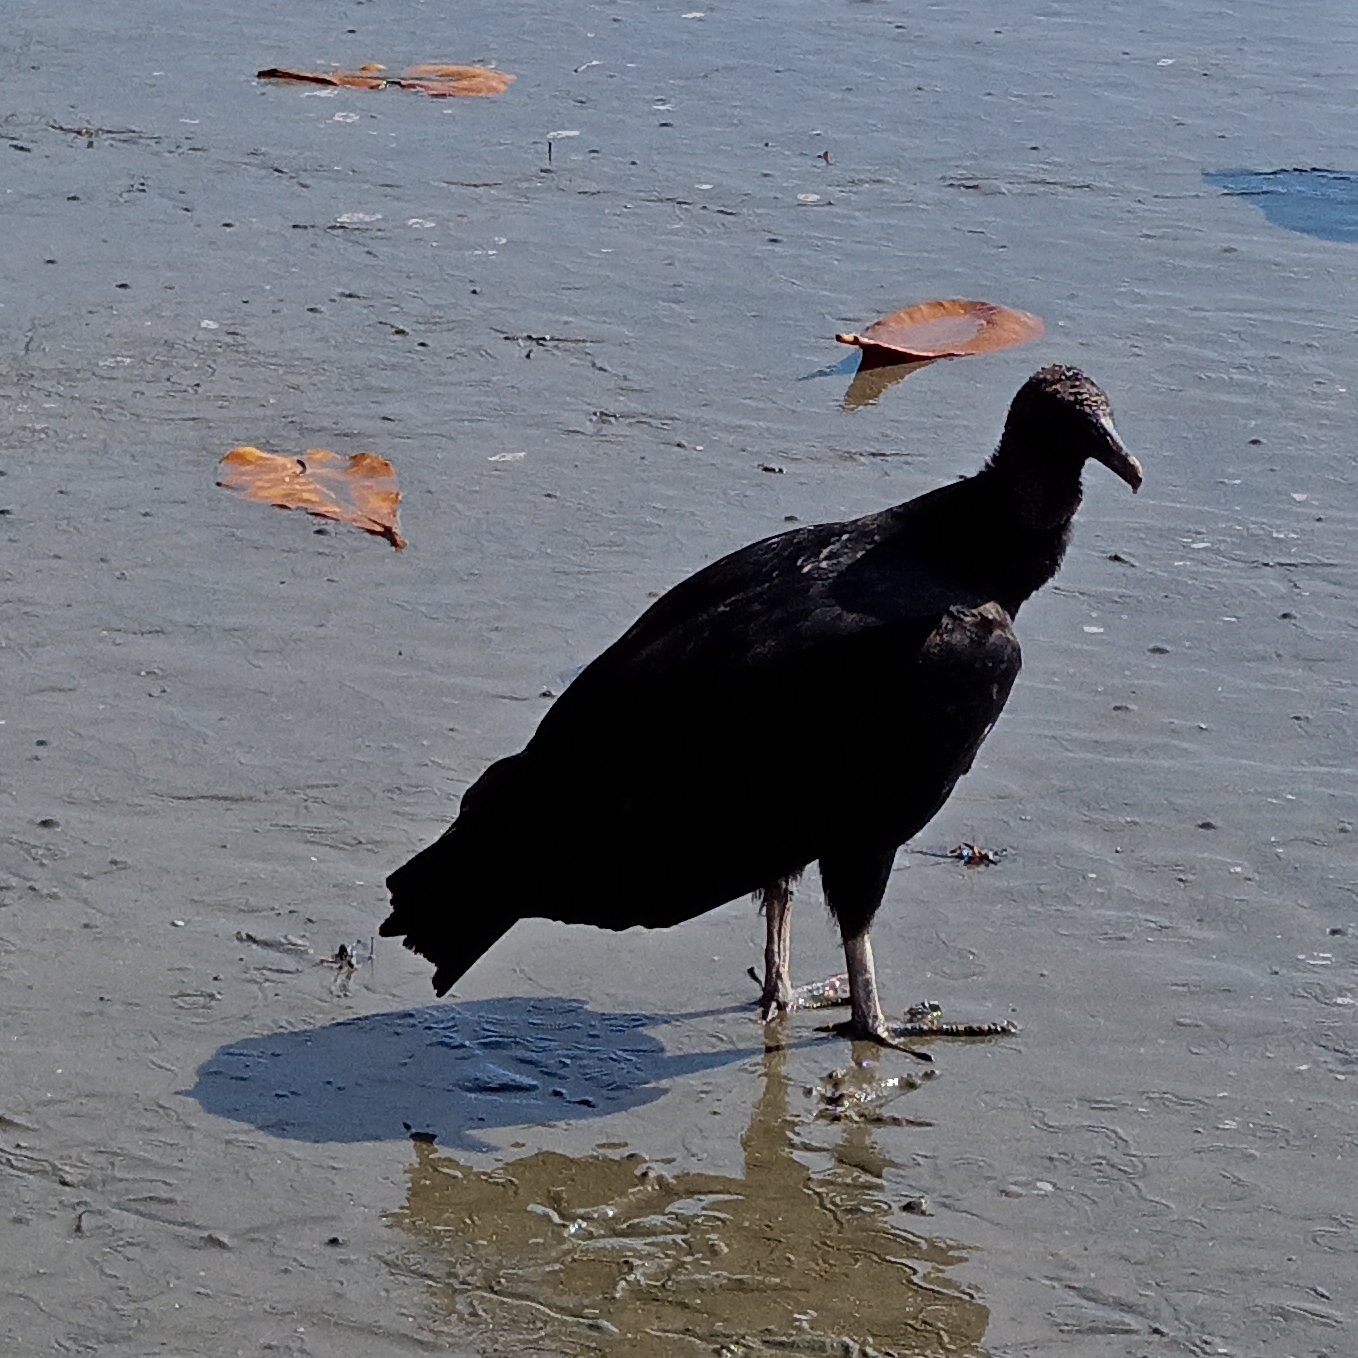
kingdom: Animalia
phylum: Chordata
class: Aves
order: Accipitriformes
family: Cathartidae
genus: Coragyps
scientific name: Coragyps atratus
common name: Black vulture
